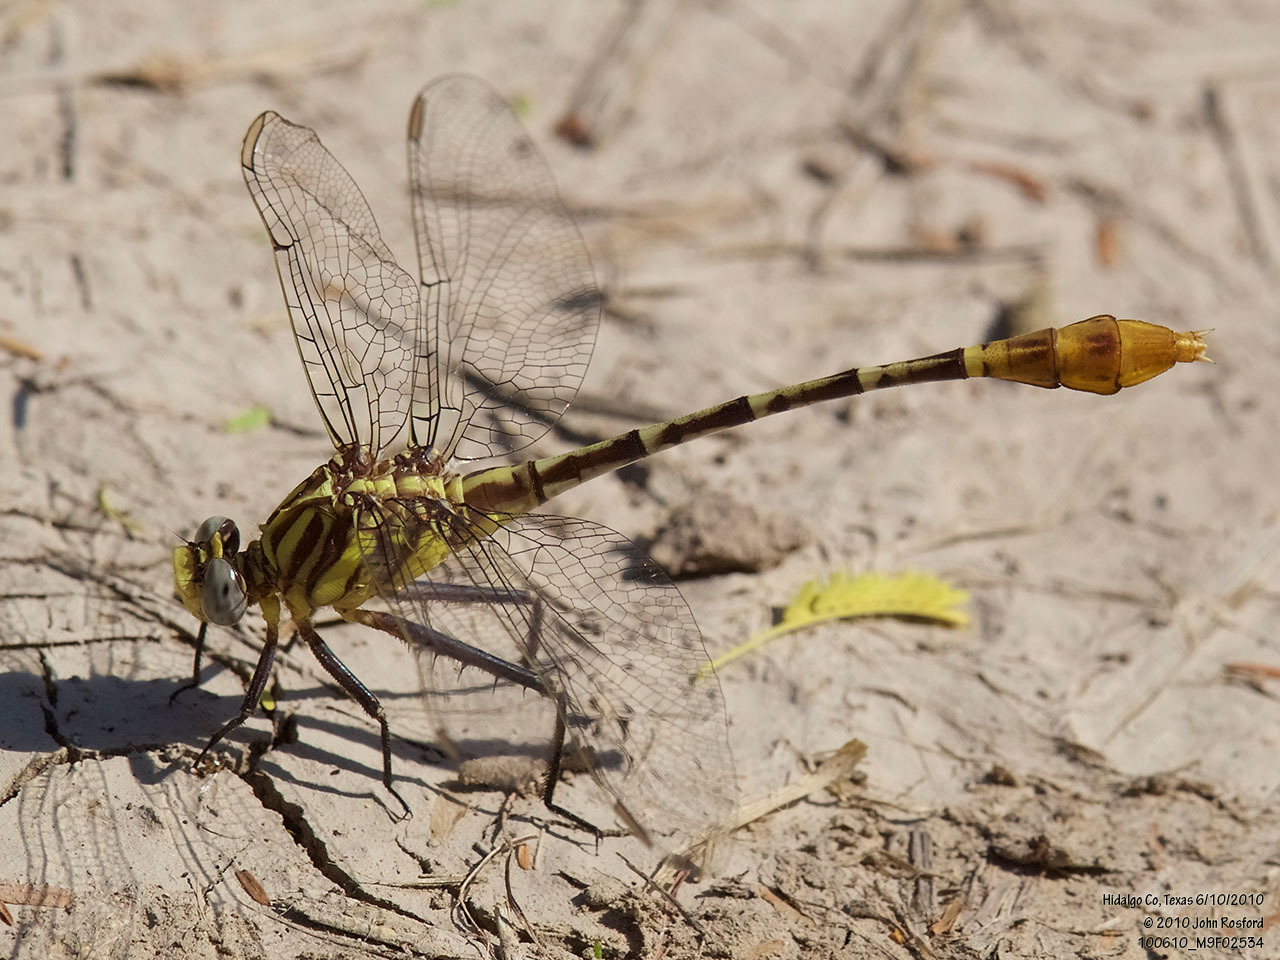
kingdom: Animalia
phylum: Arthropoda
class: Insecta
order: Odonata
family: Gomphidae
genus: Dromogomphus
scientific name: Dromogomphus spoliatus
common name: Flag-tailed spinyleg
